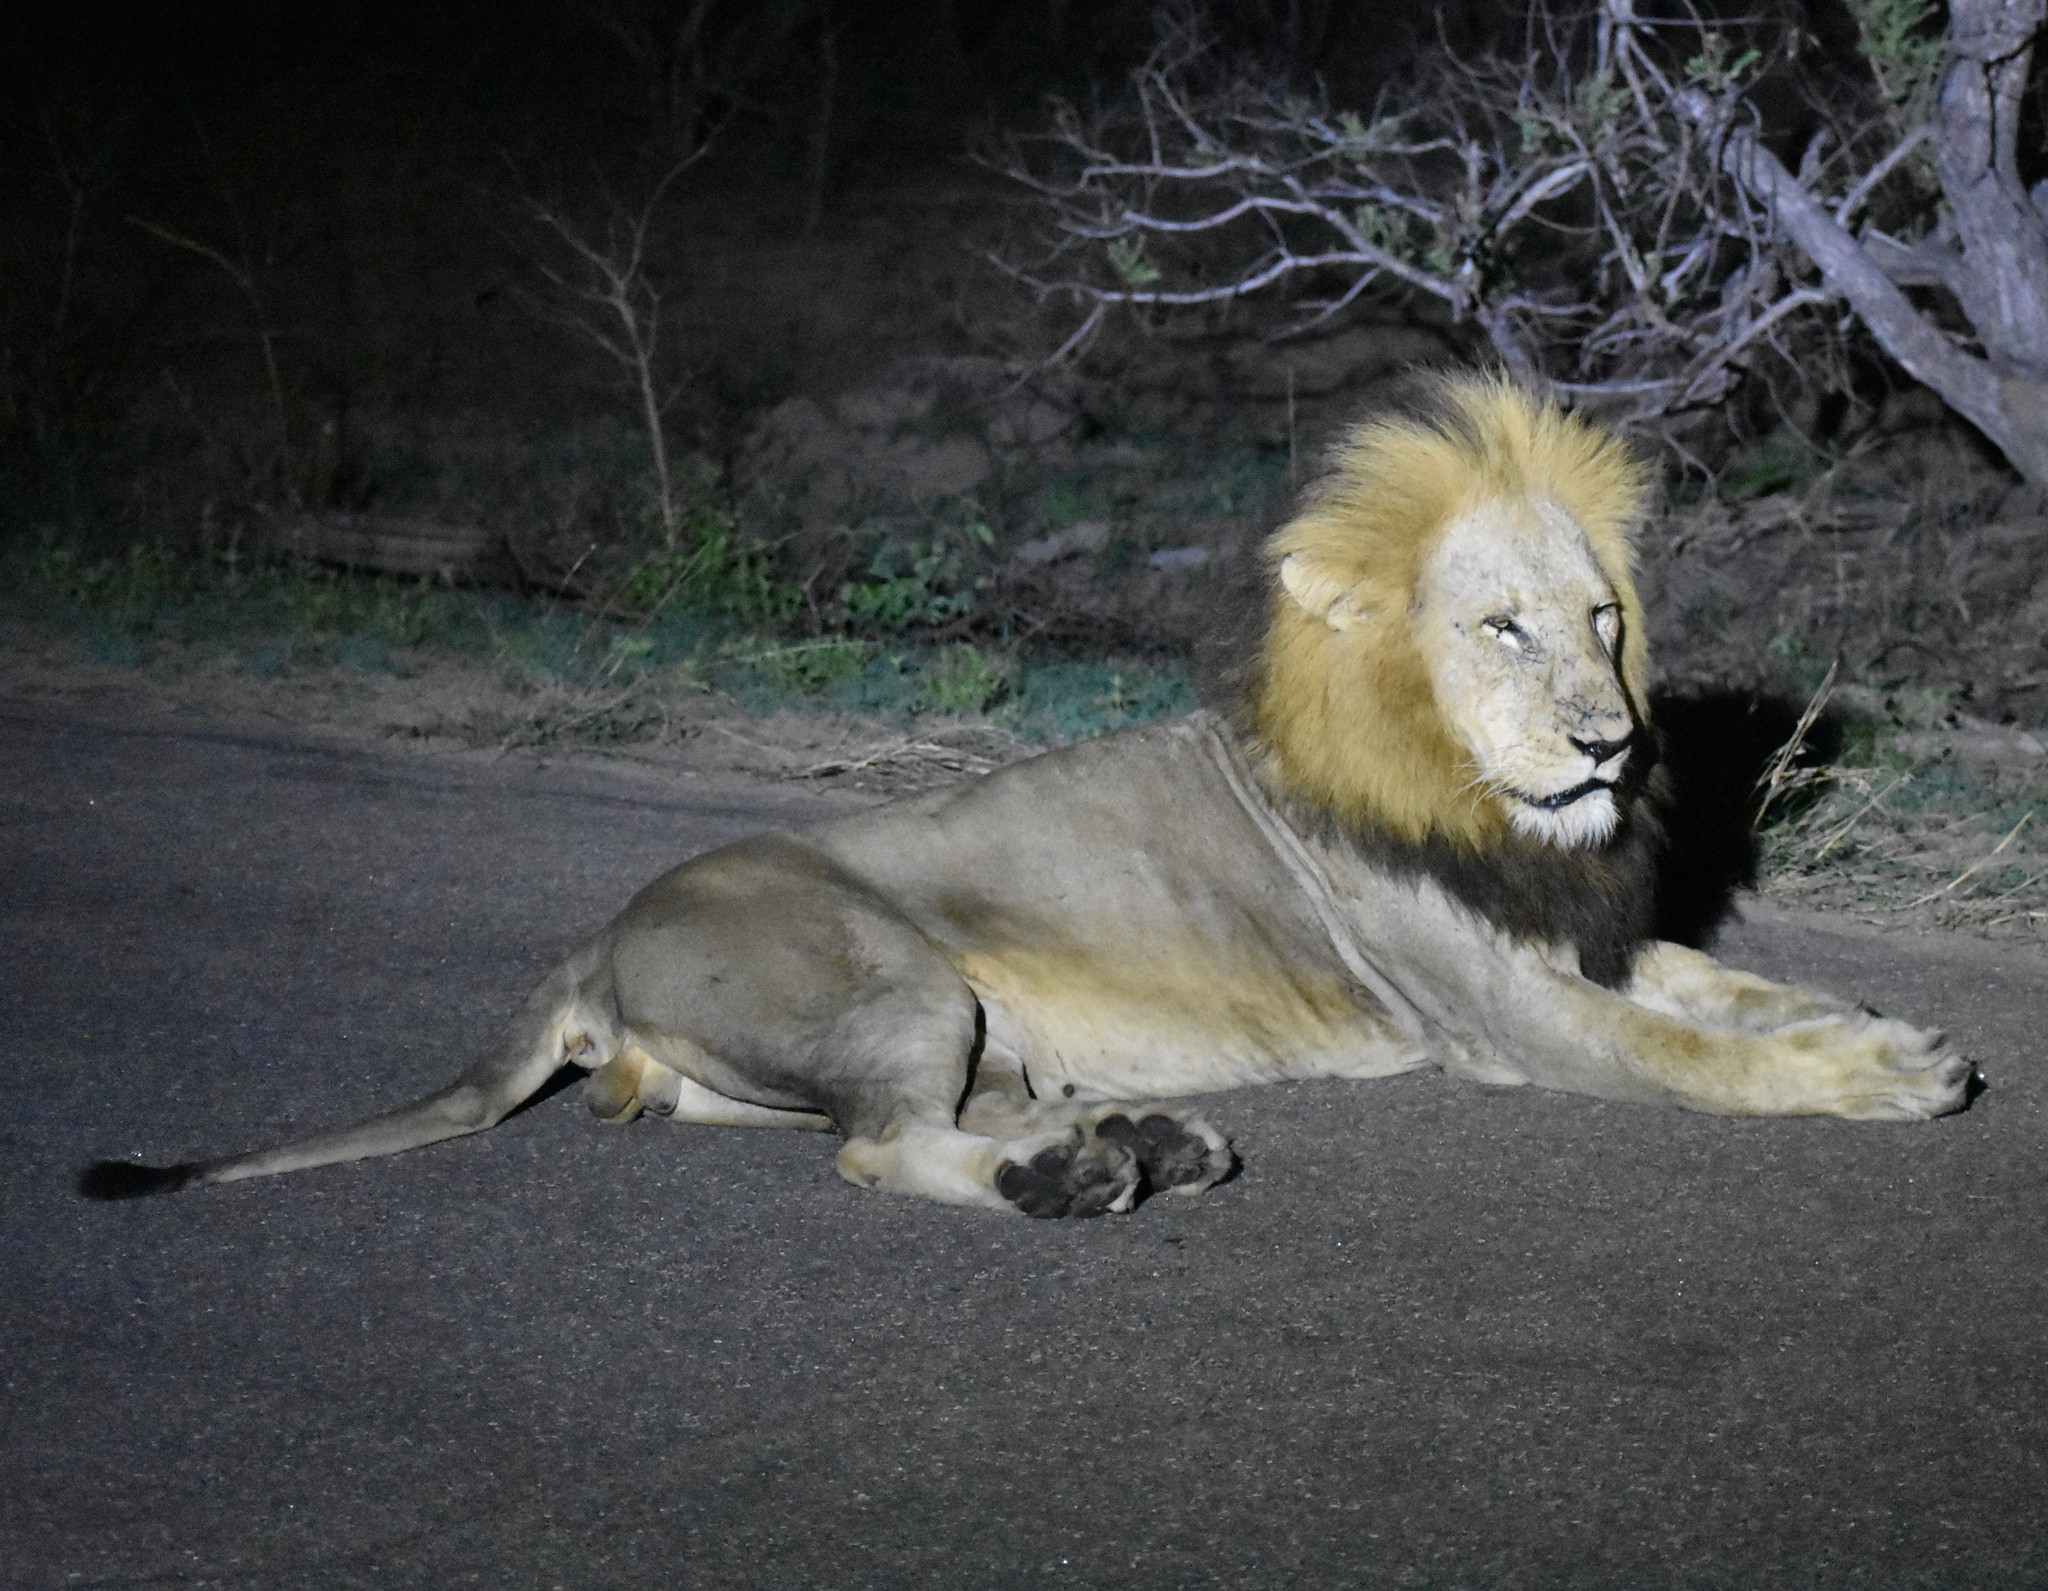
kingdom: Animalia
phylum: Chordata
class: Mammalia
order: Carnivora
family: Felidae
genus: Panthera
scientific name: Panthera leo
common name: Lion
